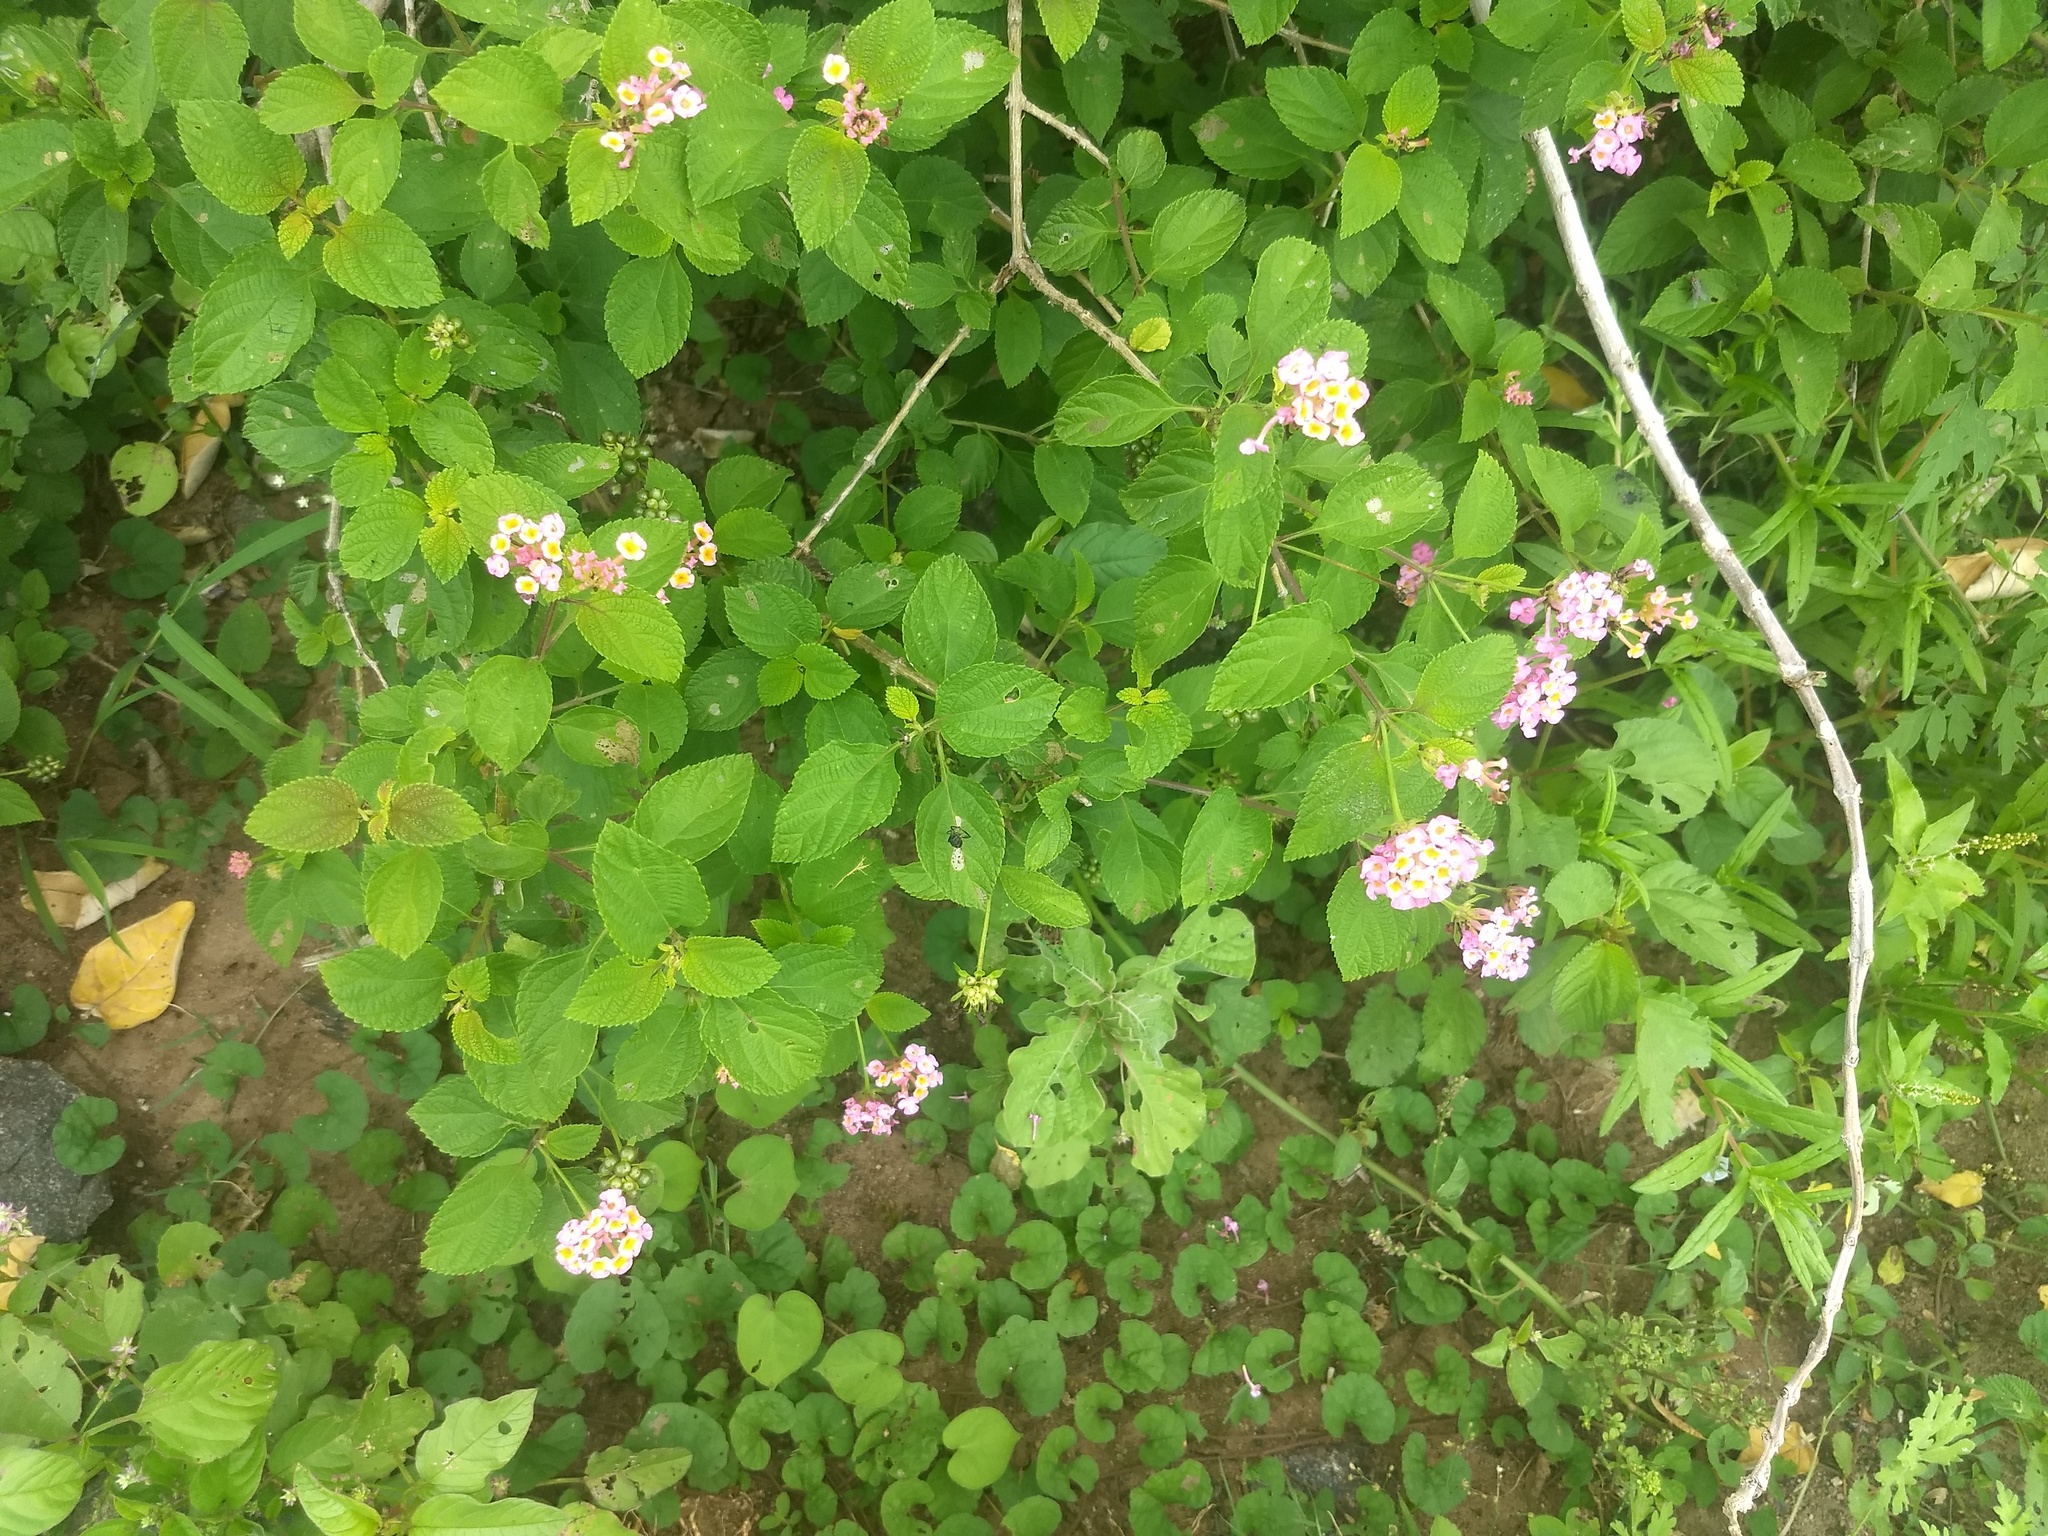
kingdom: Plantae
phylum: Tracheophyta
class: Magnoliopsida
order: Lamiales
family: Verbenaceae
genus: Lantana
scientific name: Lantana camara
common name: Lantana
